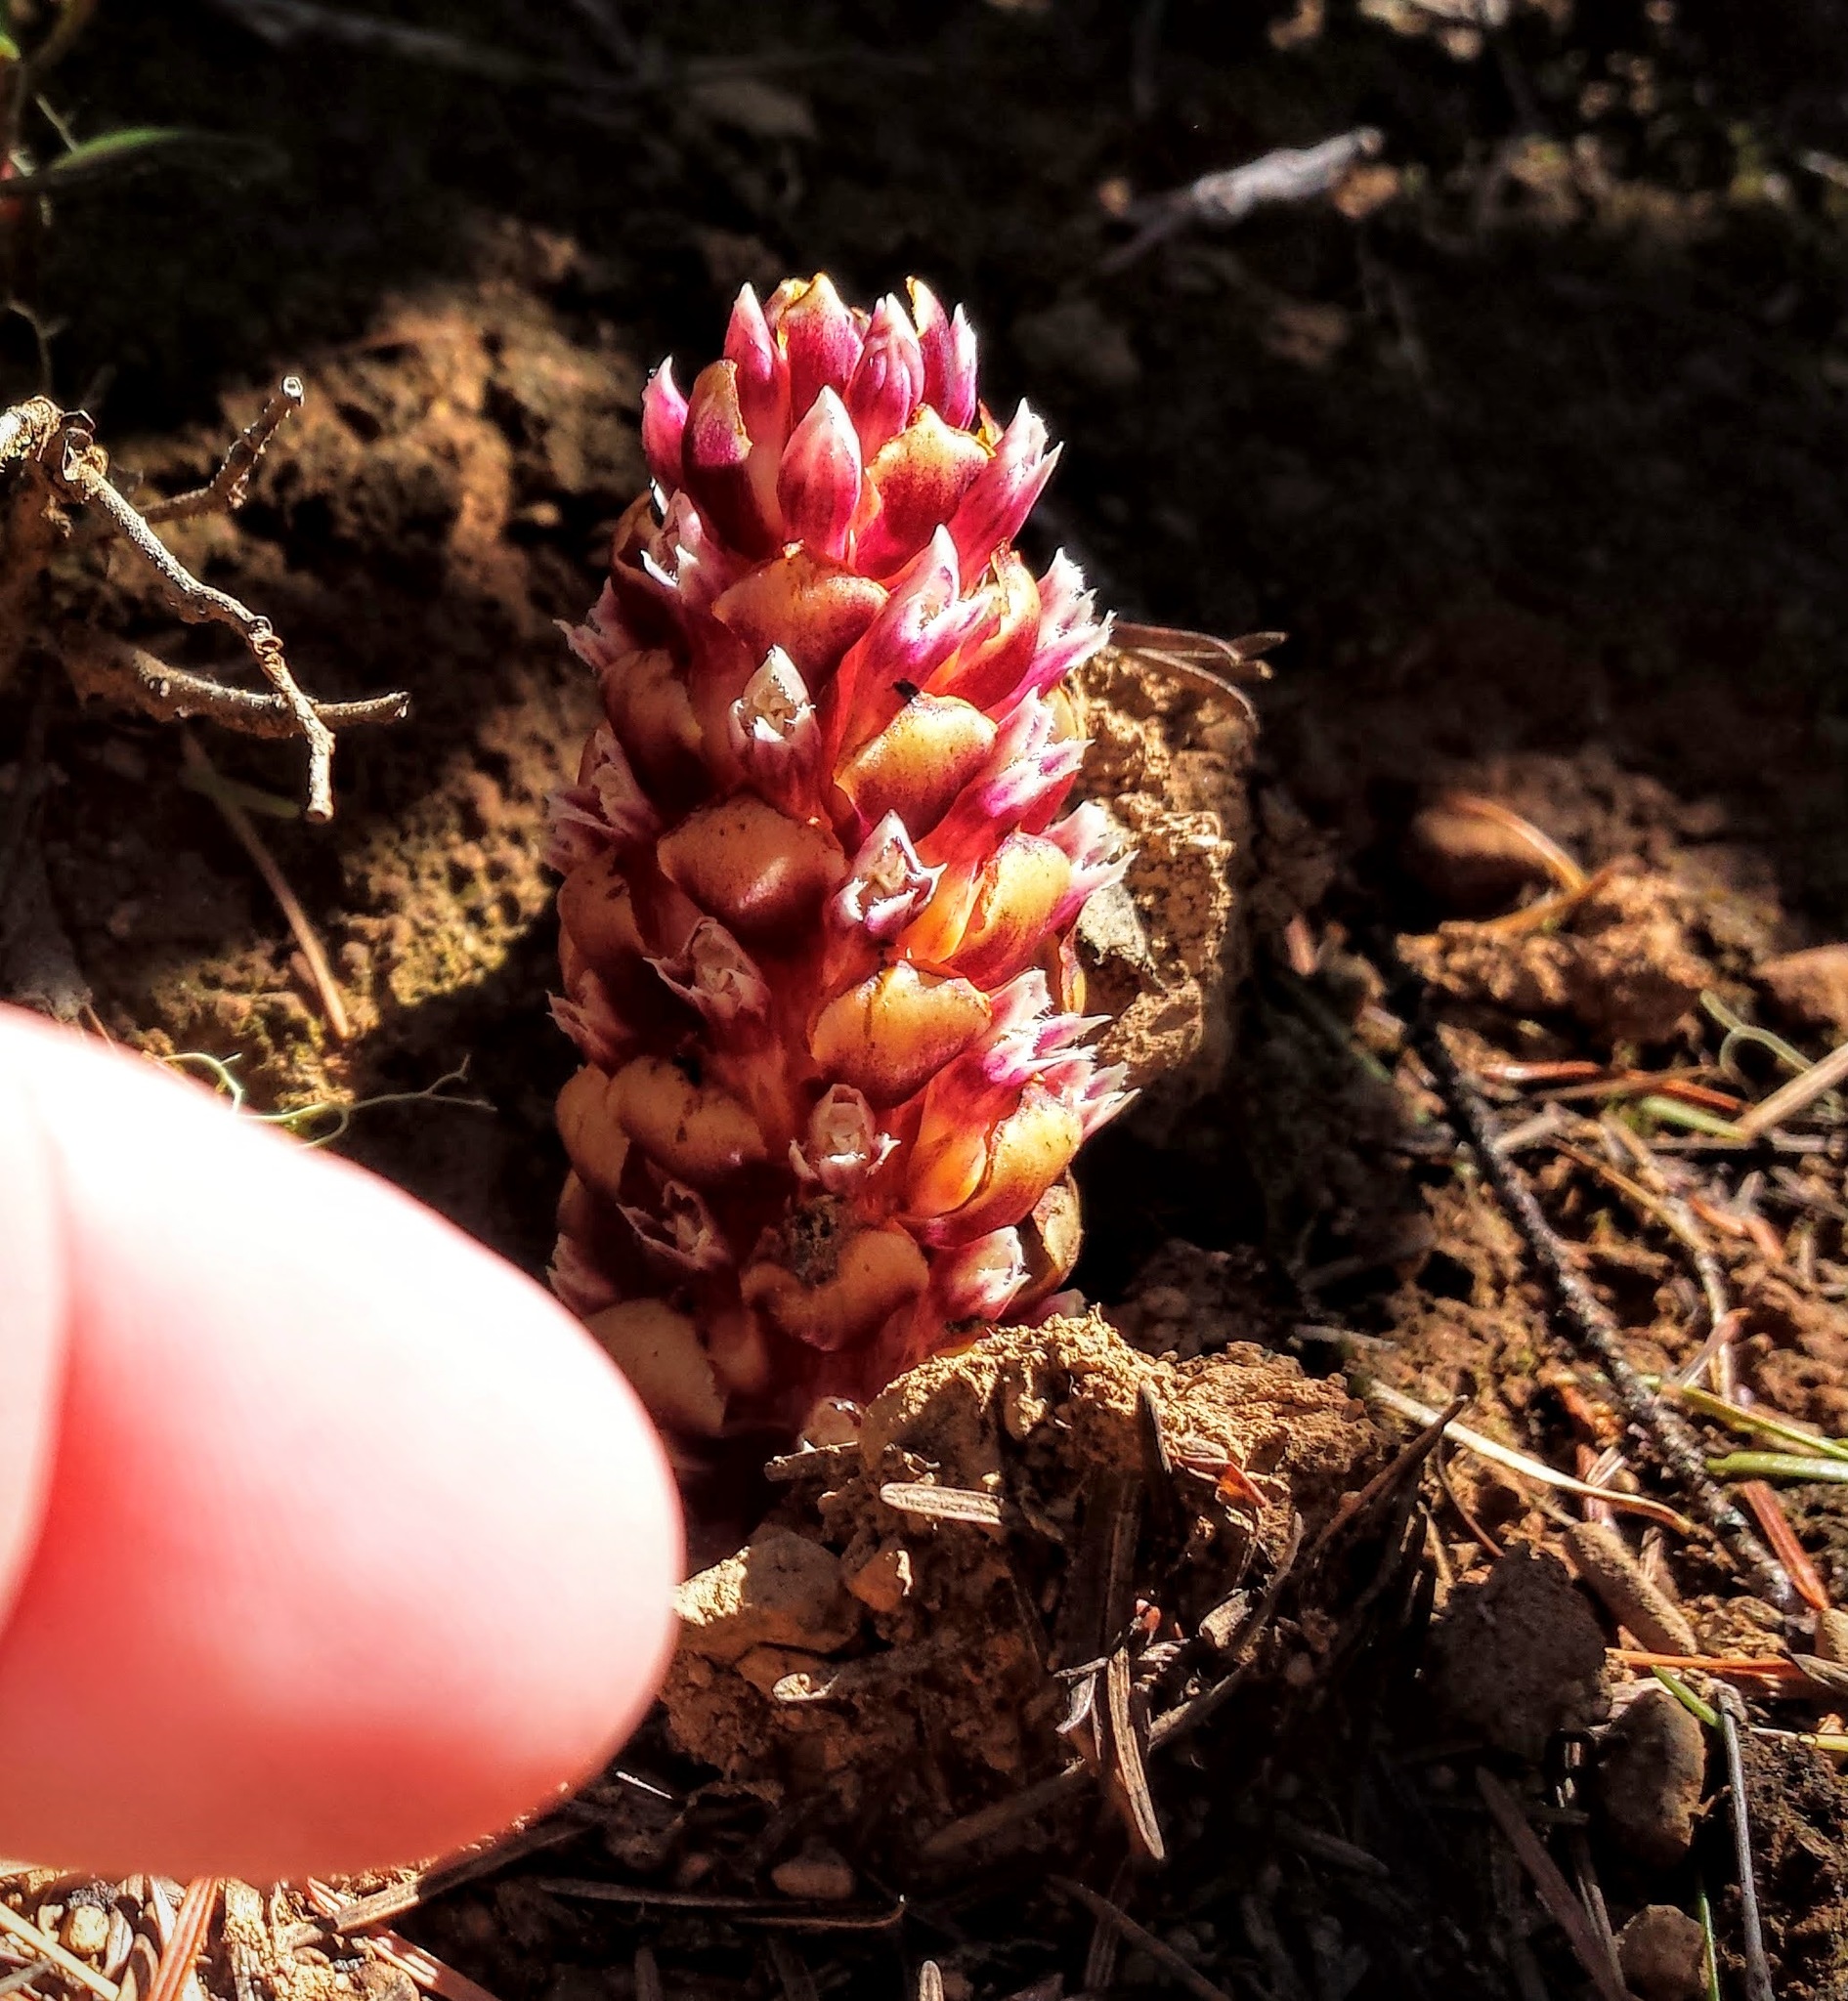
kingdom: Plantae
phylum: Tracheophyta
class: Magnoliopsida
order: Lamiales
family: Orobanchaceae
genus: Kopsiopsis
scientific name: Kopsiopsis hookeri
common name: Hooker's groundcone
